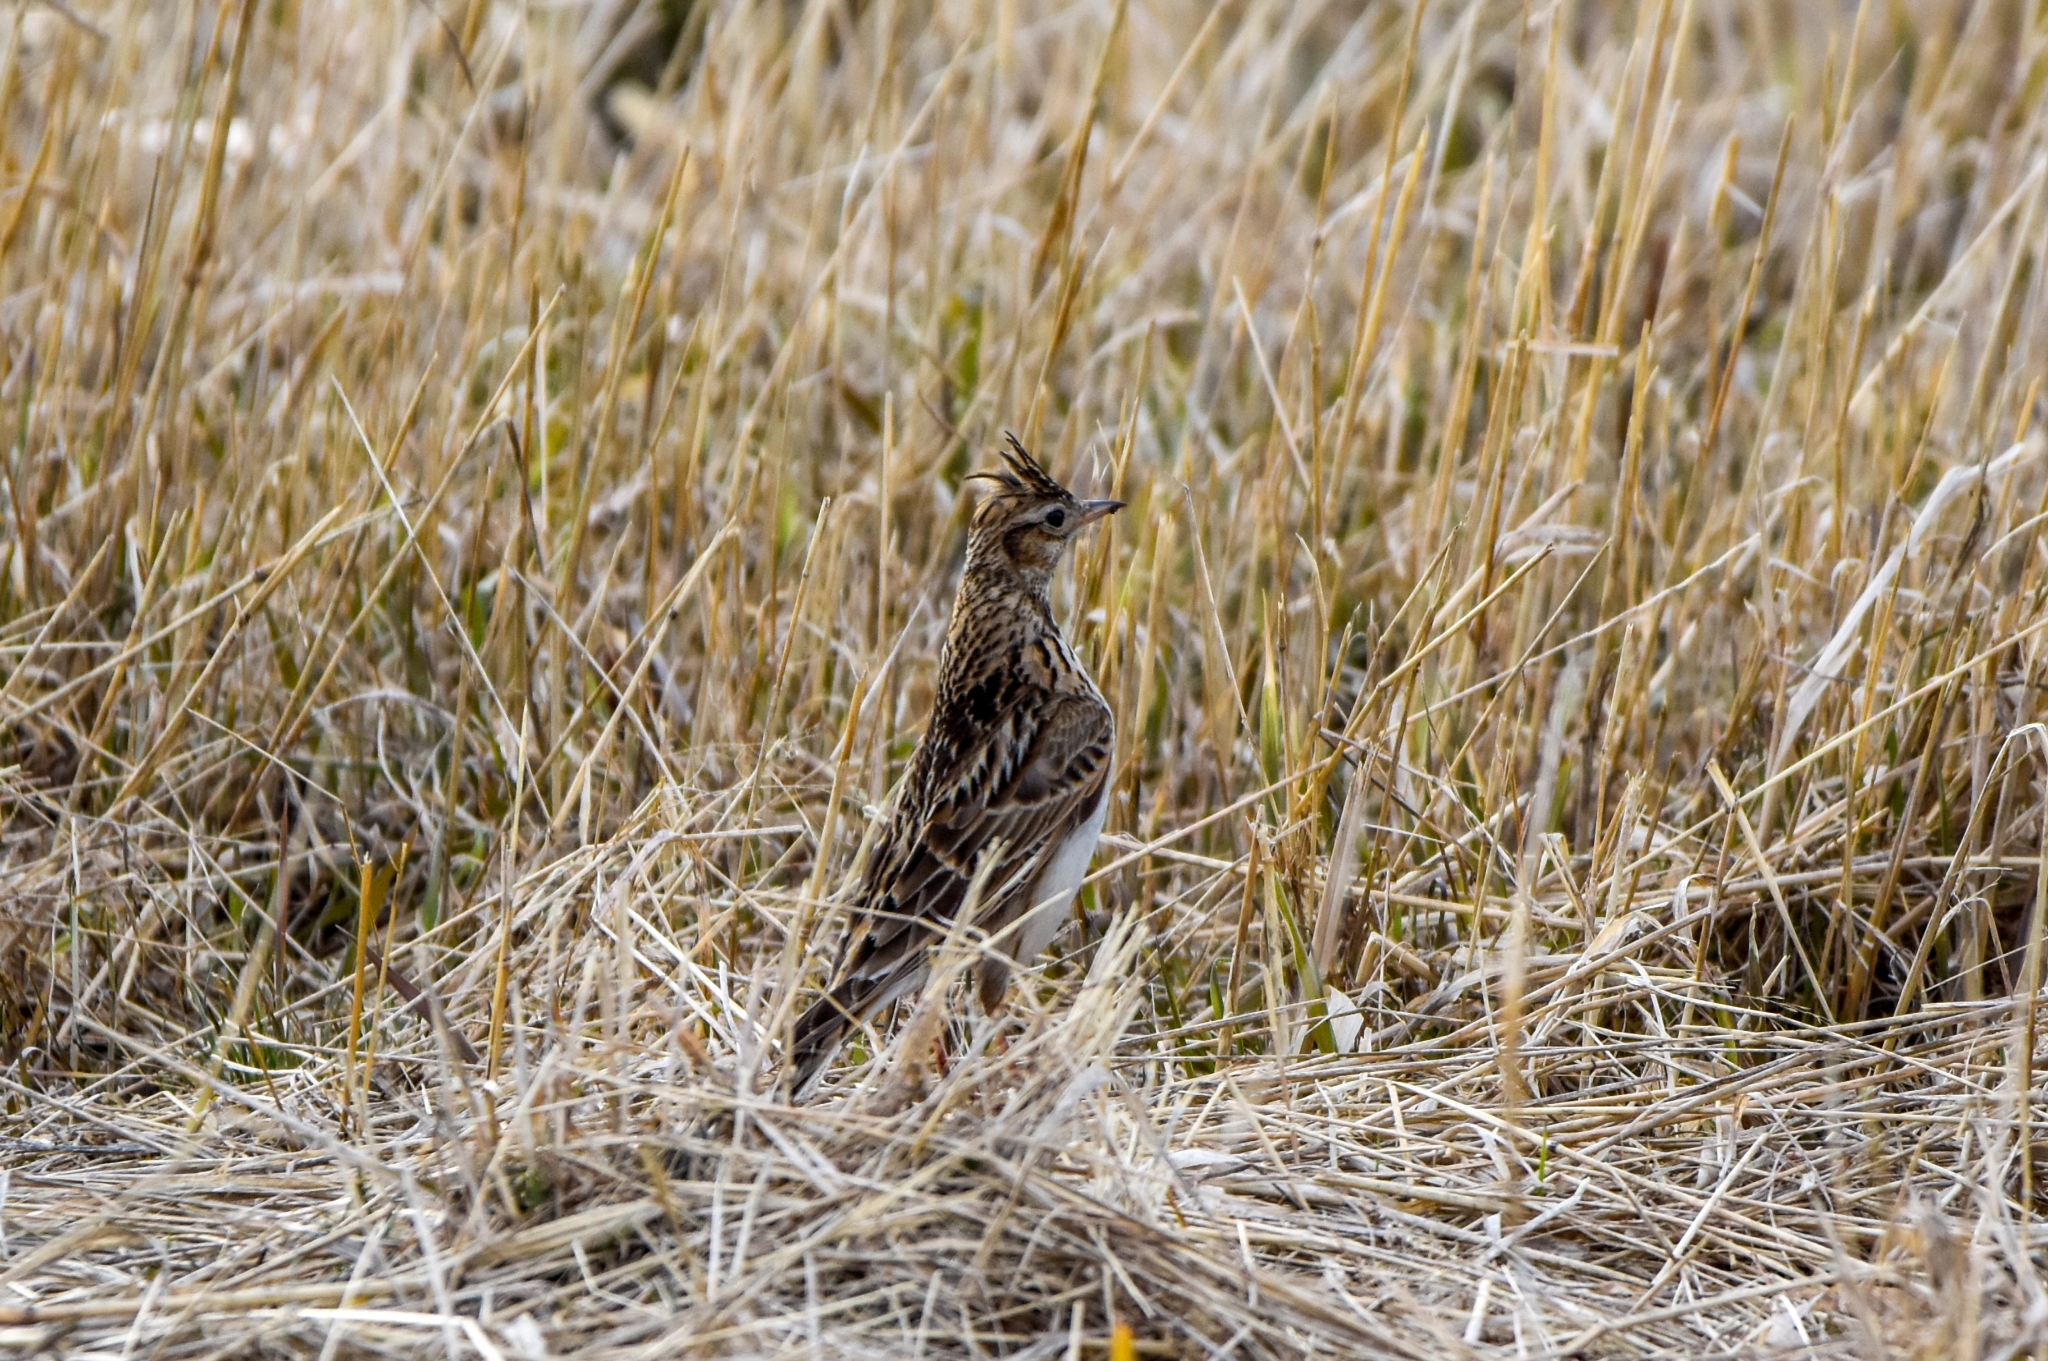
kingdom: Animalia
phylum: Chordata
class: Aves
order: Passeriformes
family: Alaudidae
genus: Alauda
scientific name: Alauda arvensis
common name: Eurasian skylark
